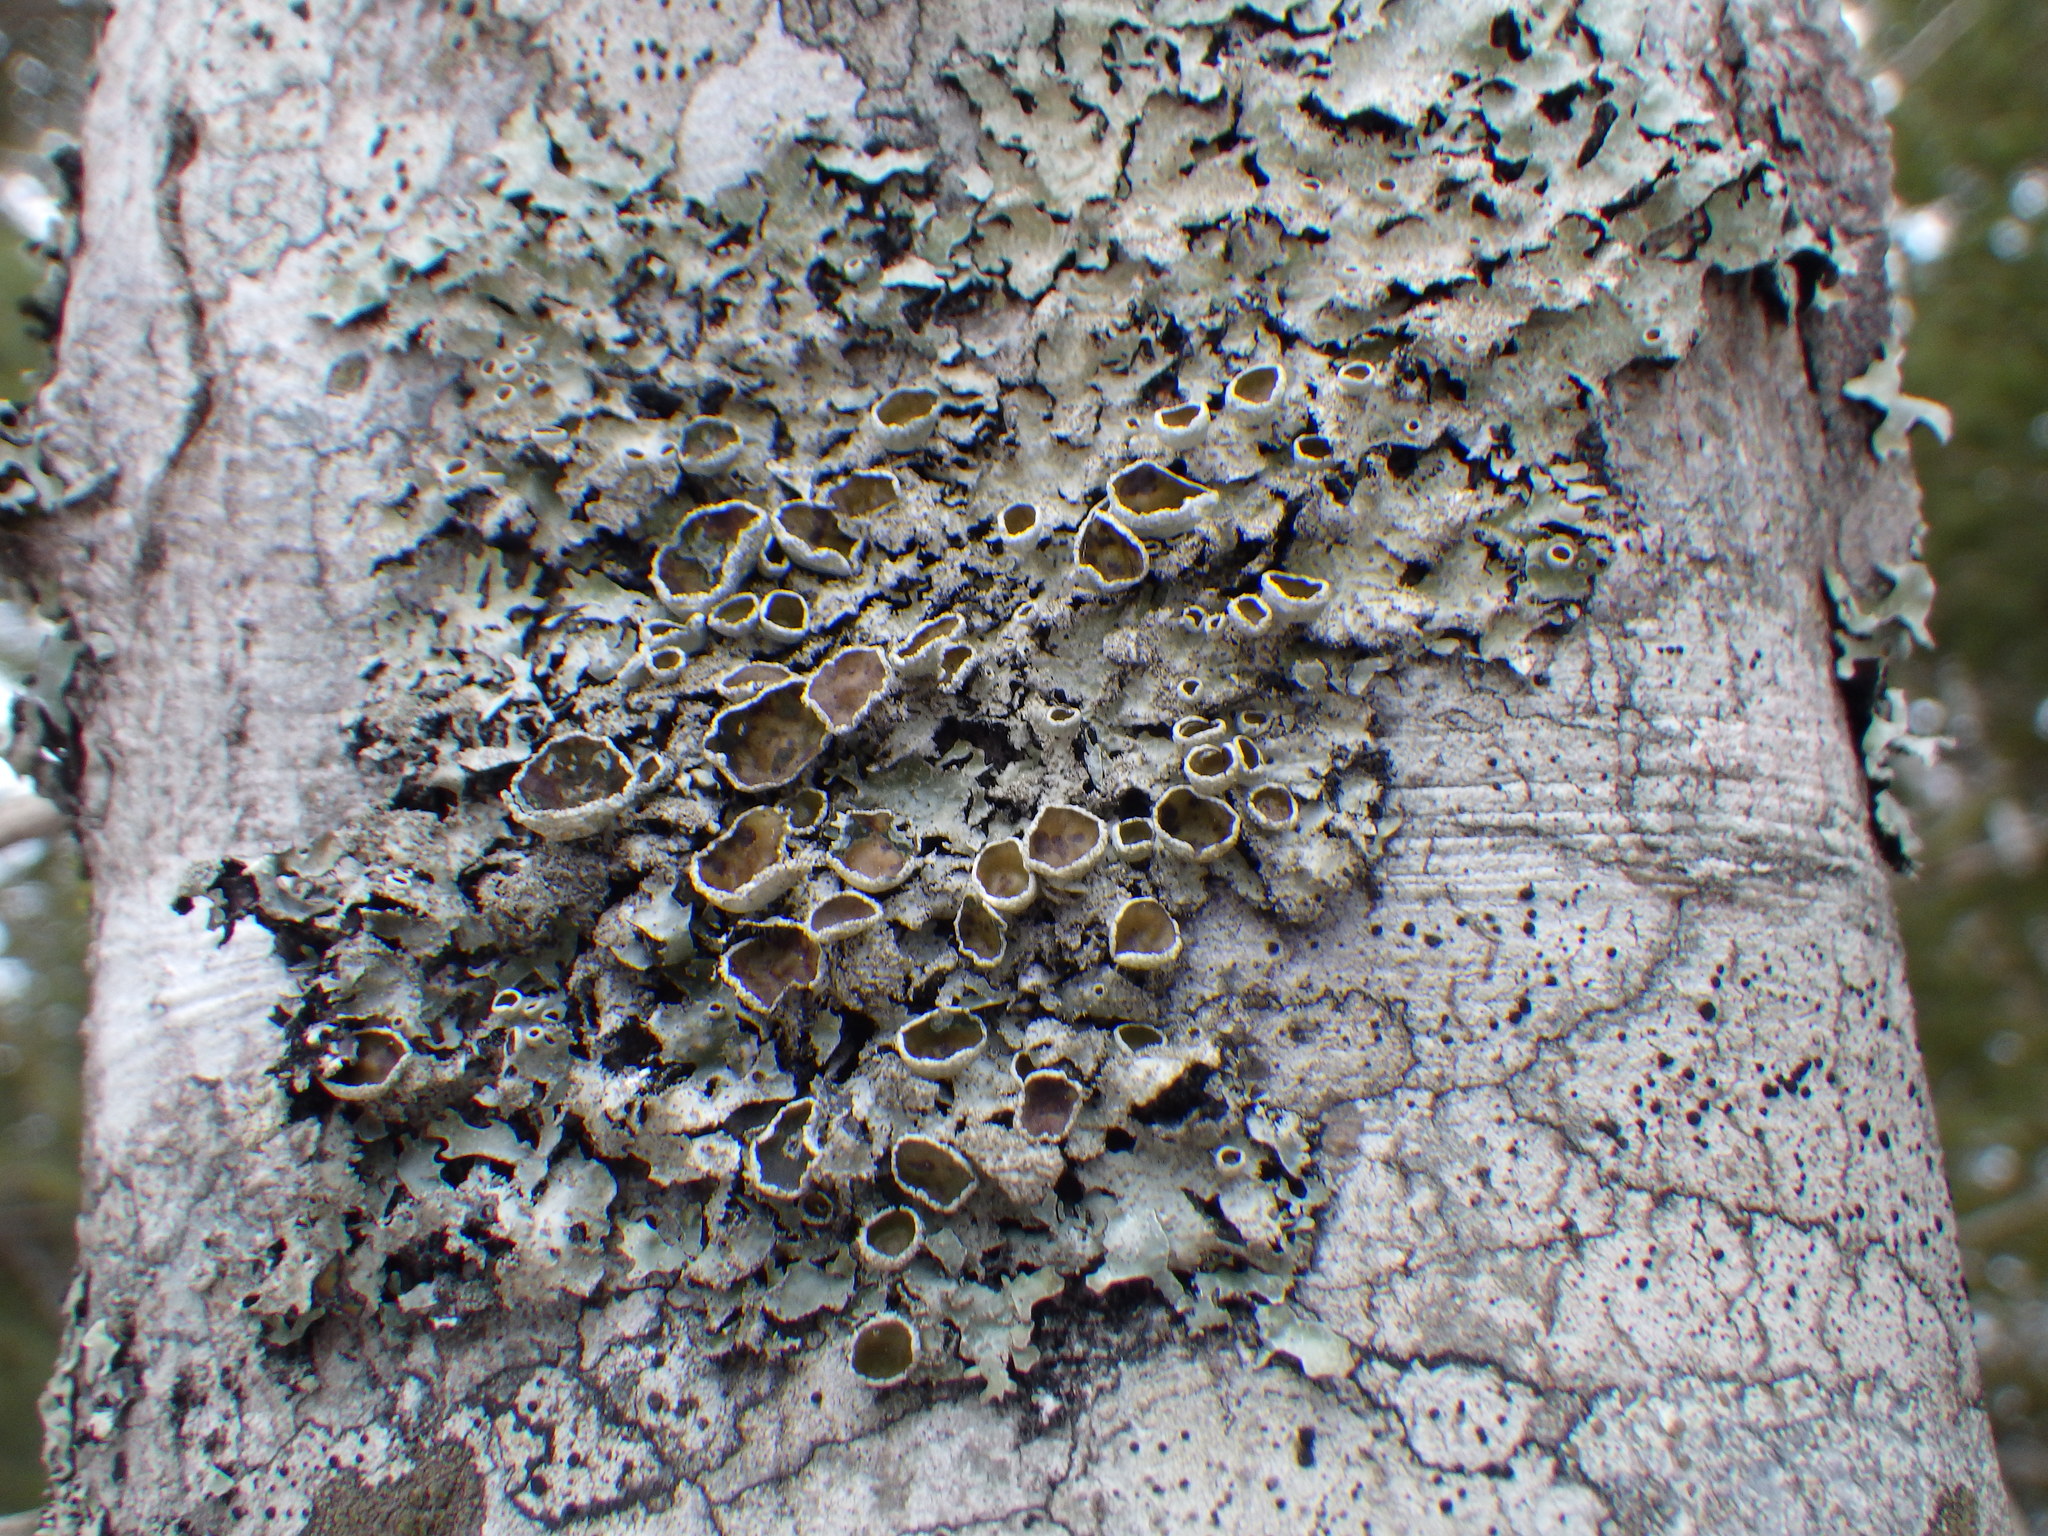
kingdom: Fungi
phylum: Ascomycota
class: Lecanoromycetes
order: Lecanorales
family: Parmeliaceae
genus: Parmelia
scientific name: Parmelia squarrosa
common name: Bottle brush shield lichen
